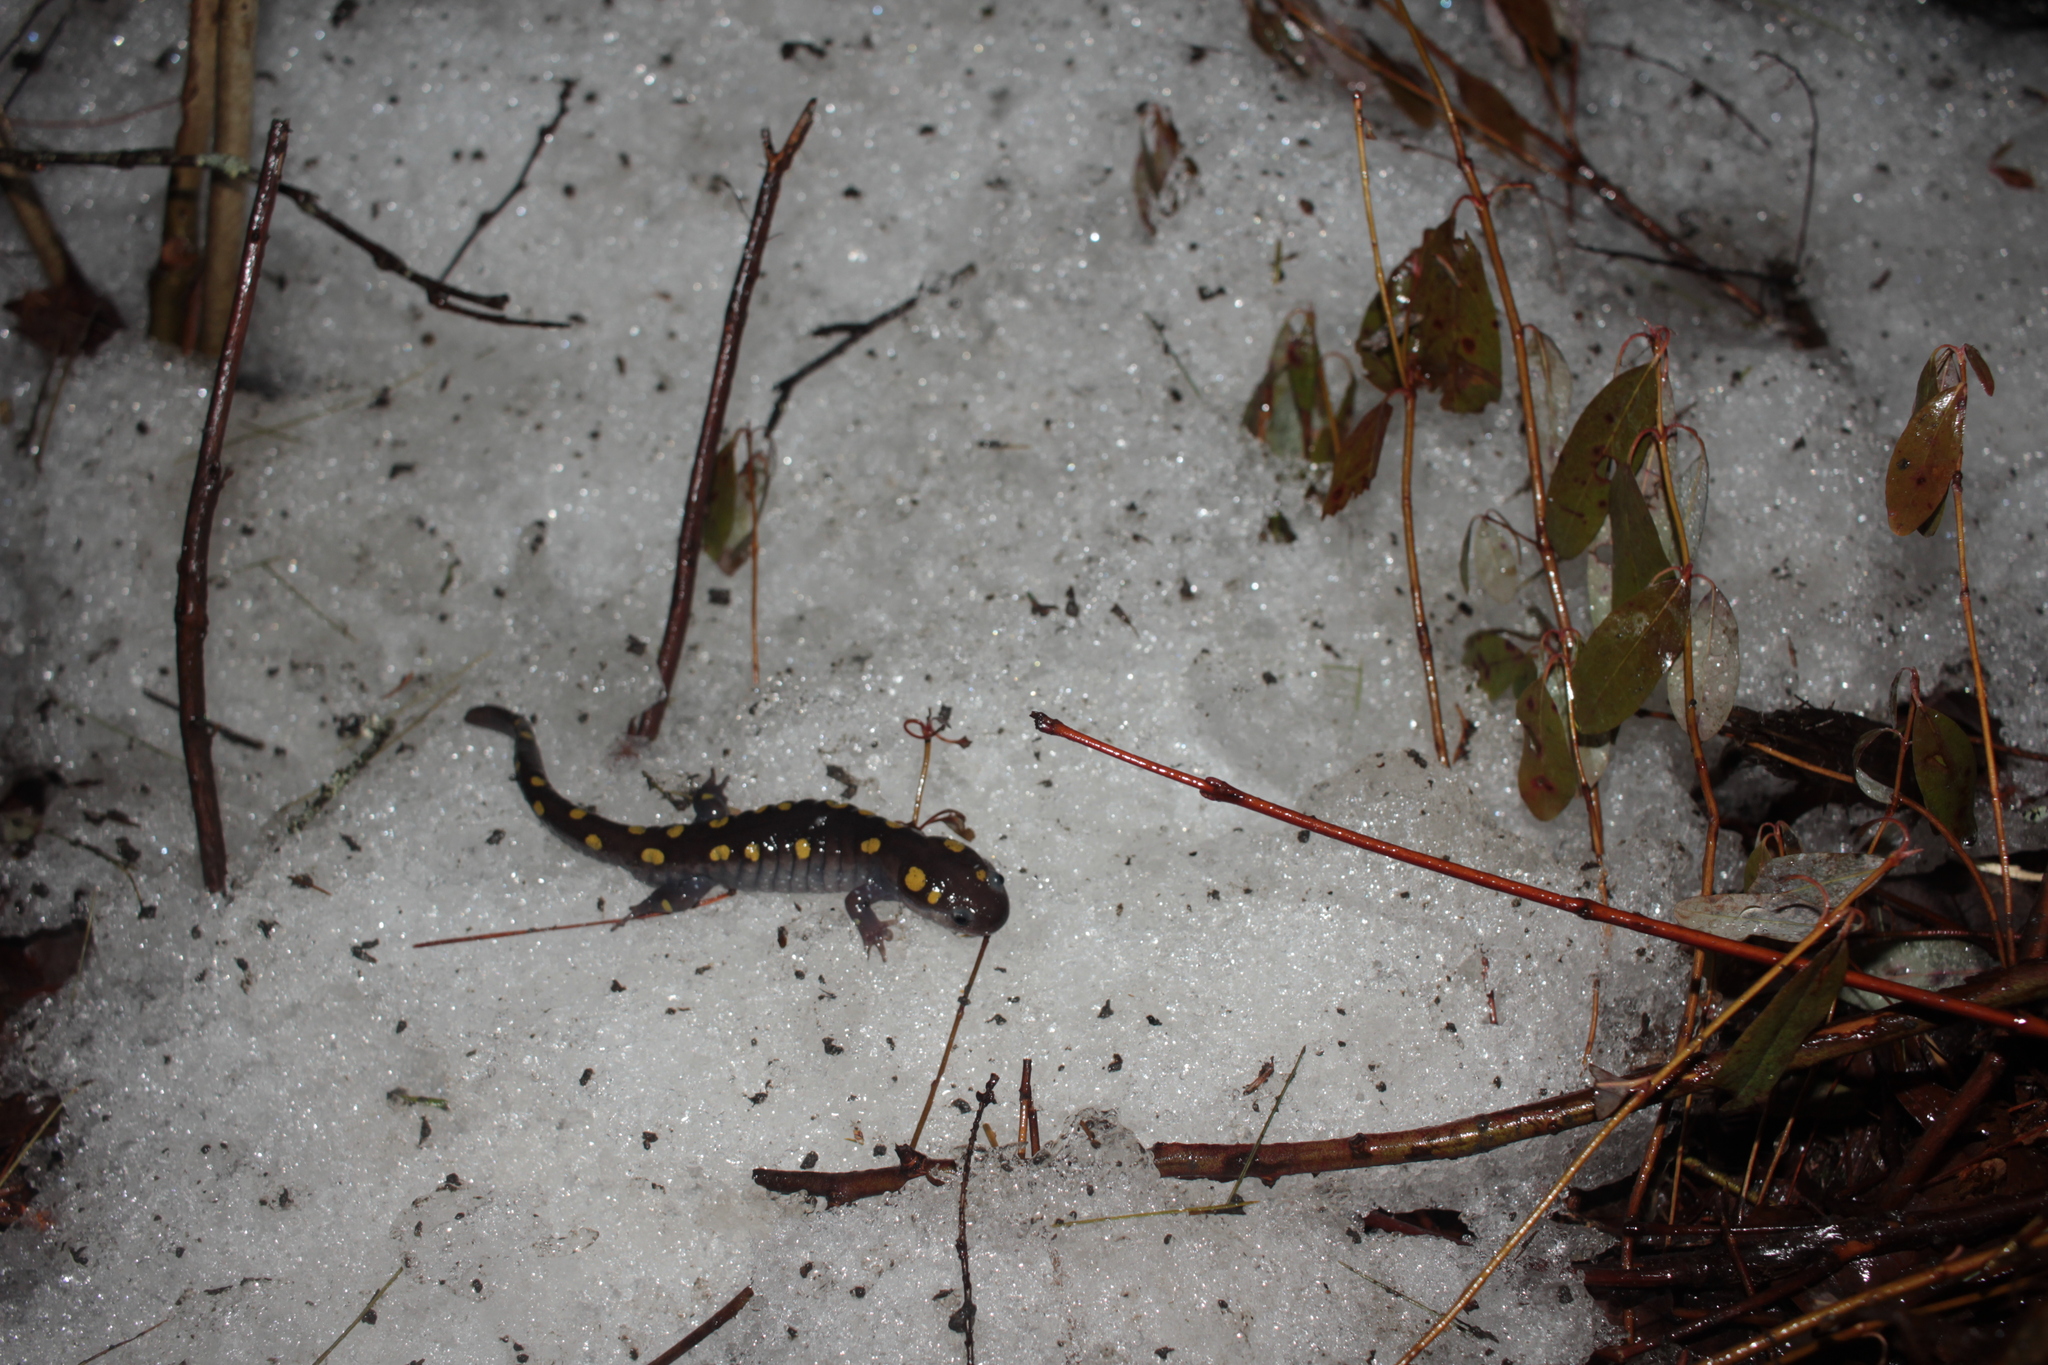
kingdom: Animalia
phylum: Chordata
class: Amphibia
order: Caudata
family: Ambystomatidae
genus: Ambystoma
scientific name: Ambystoma maculatum
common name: Spotted salamander
